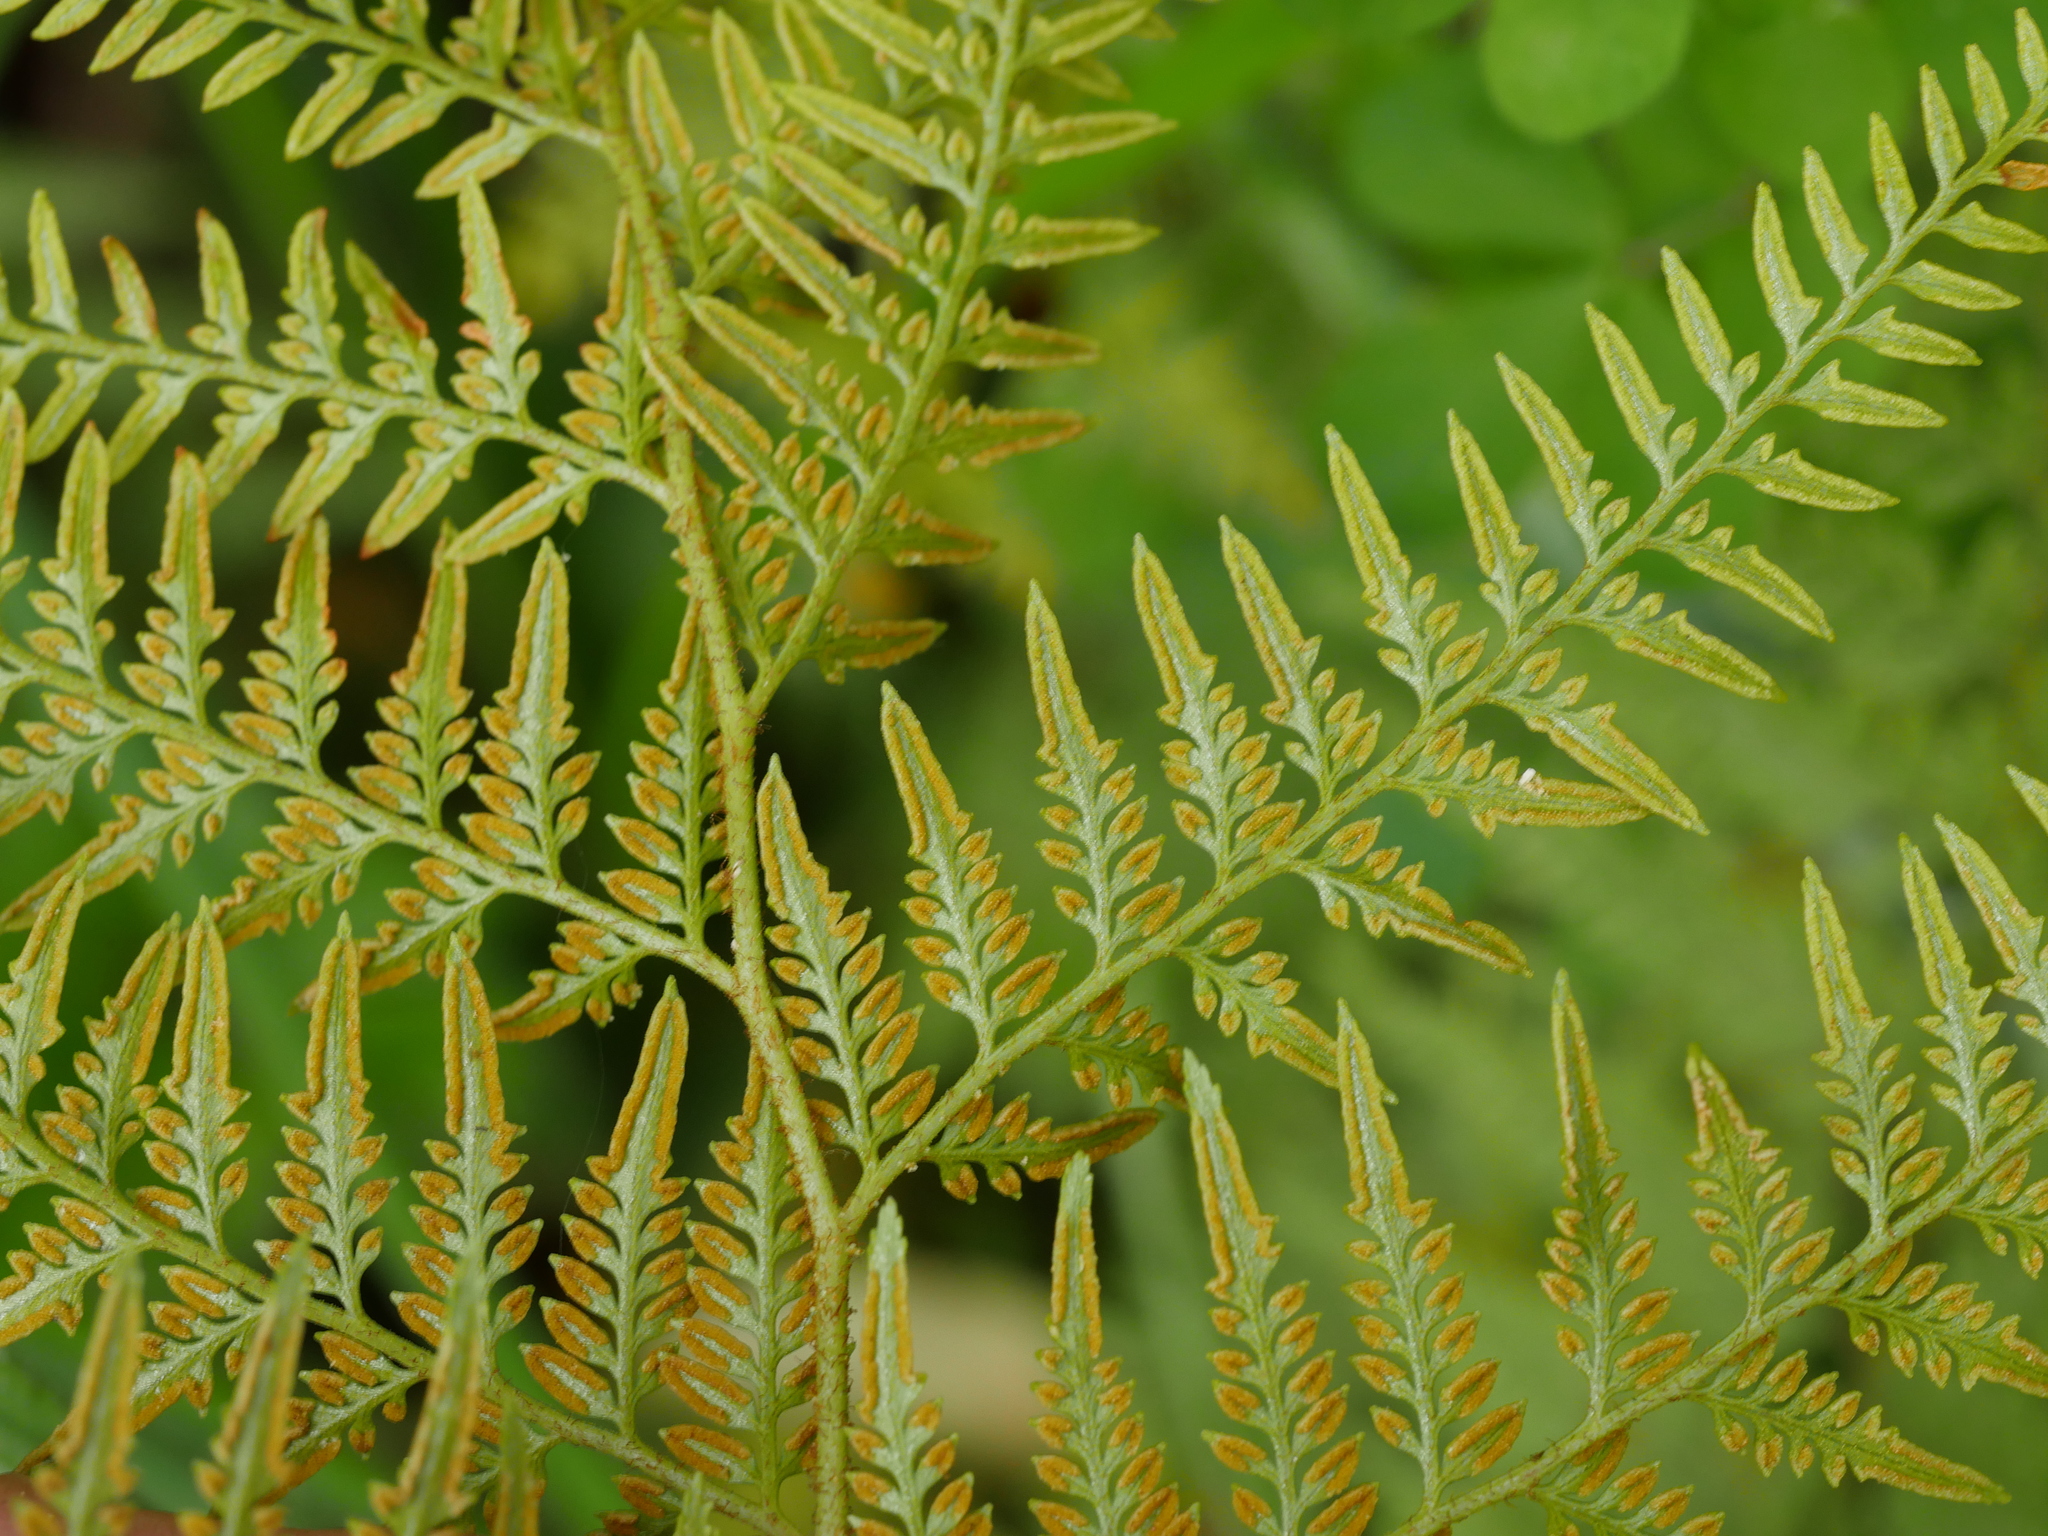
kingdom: Plantae
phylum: Tracheophyta
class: Polypodiopsida
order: Polypodiales
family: Dennstaedtiaceae
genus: Paesia
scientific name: Paesia scaberula
